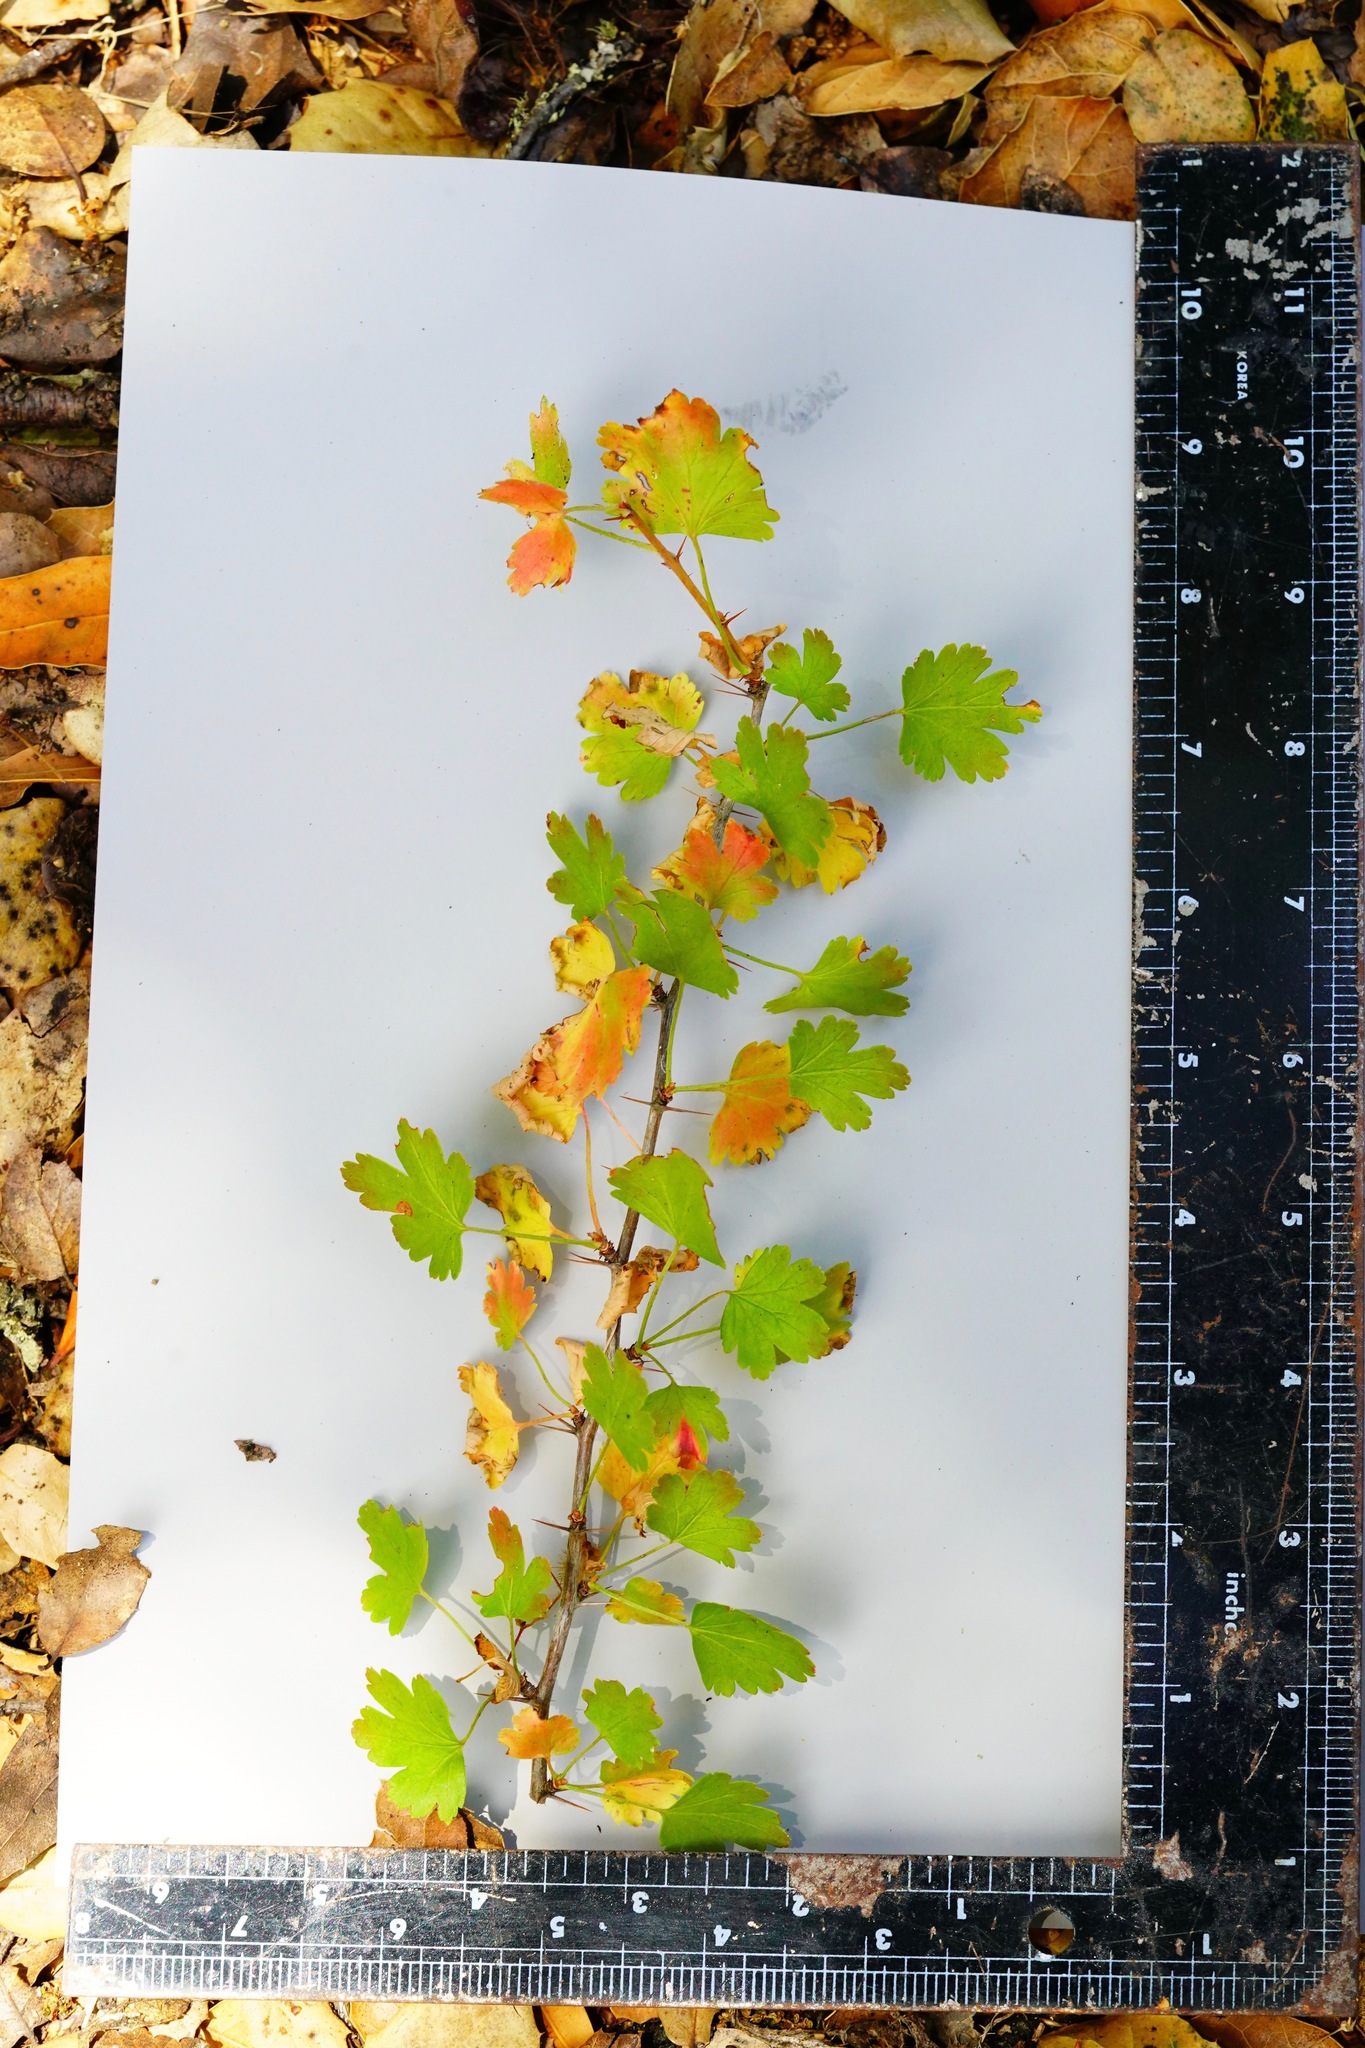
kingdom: Plantae
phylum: Tracheophyta
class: Magnoliopsida
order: Saxifragales
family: Grossulariaceae
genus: Ribes
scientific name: Ribes californicum
